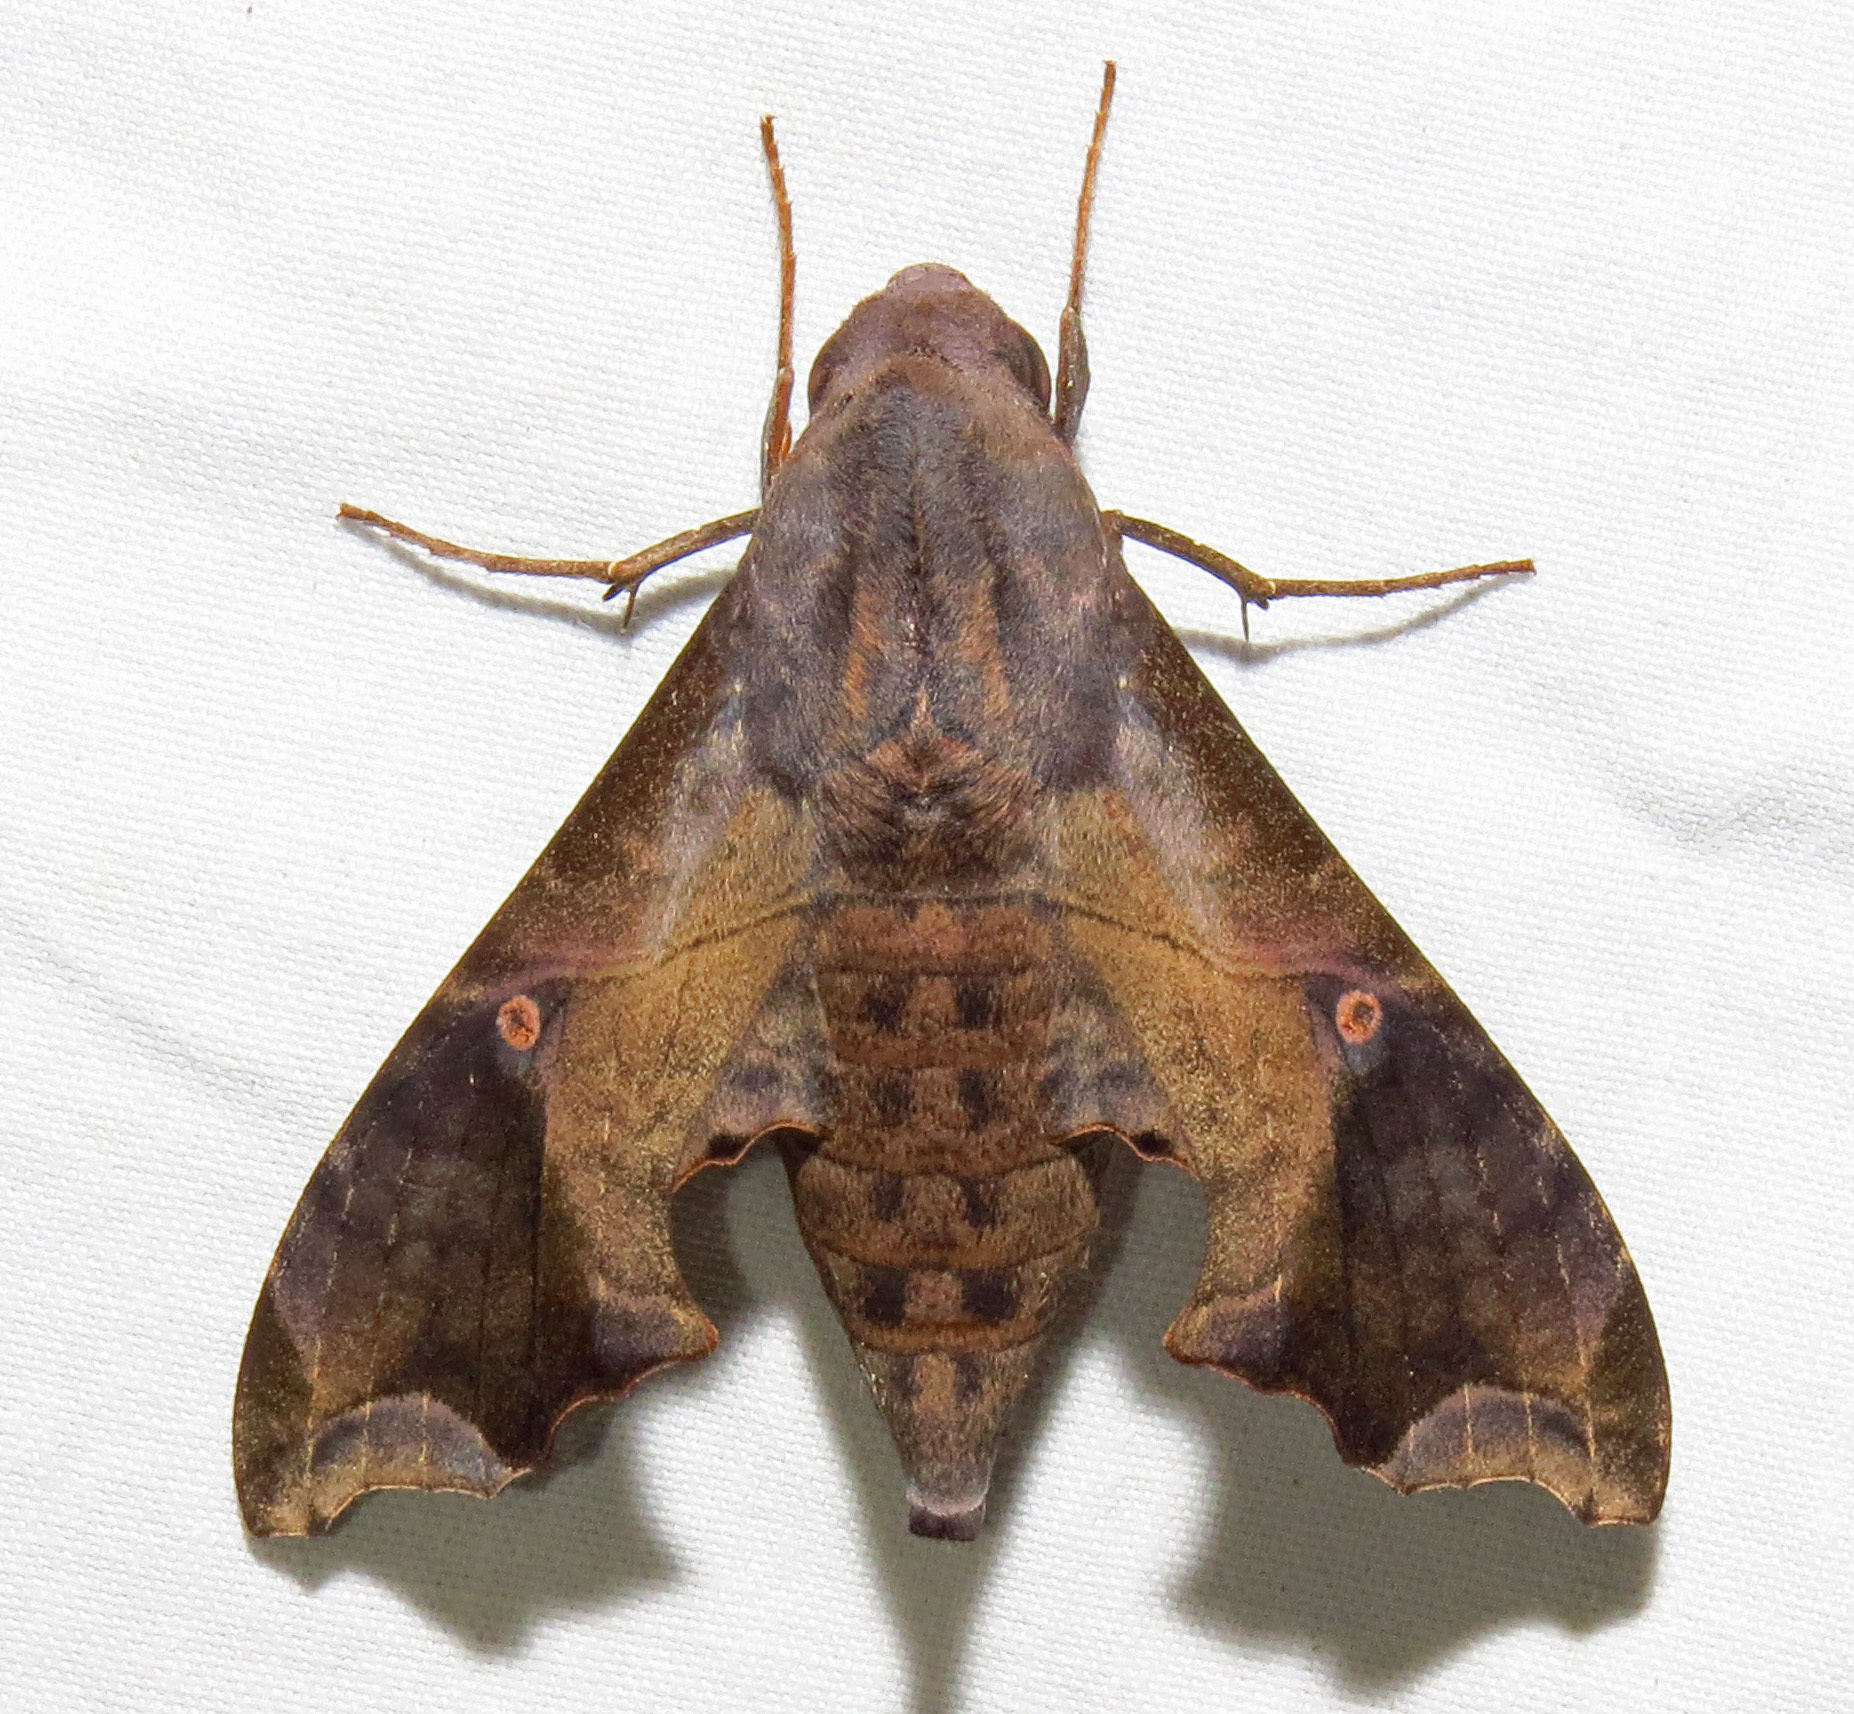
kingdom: Animalia
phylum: Arthropoda
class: Insecta
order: Lepidoptera
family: Sphingidae
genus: Enyo
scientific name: Enyo lugubris
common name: Mournful sphinx
